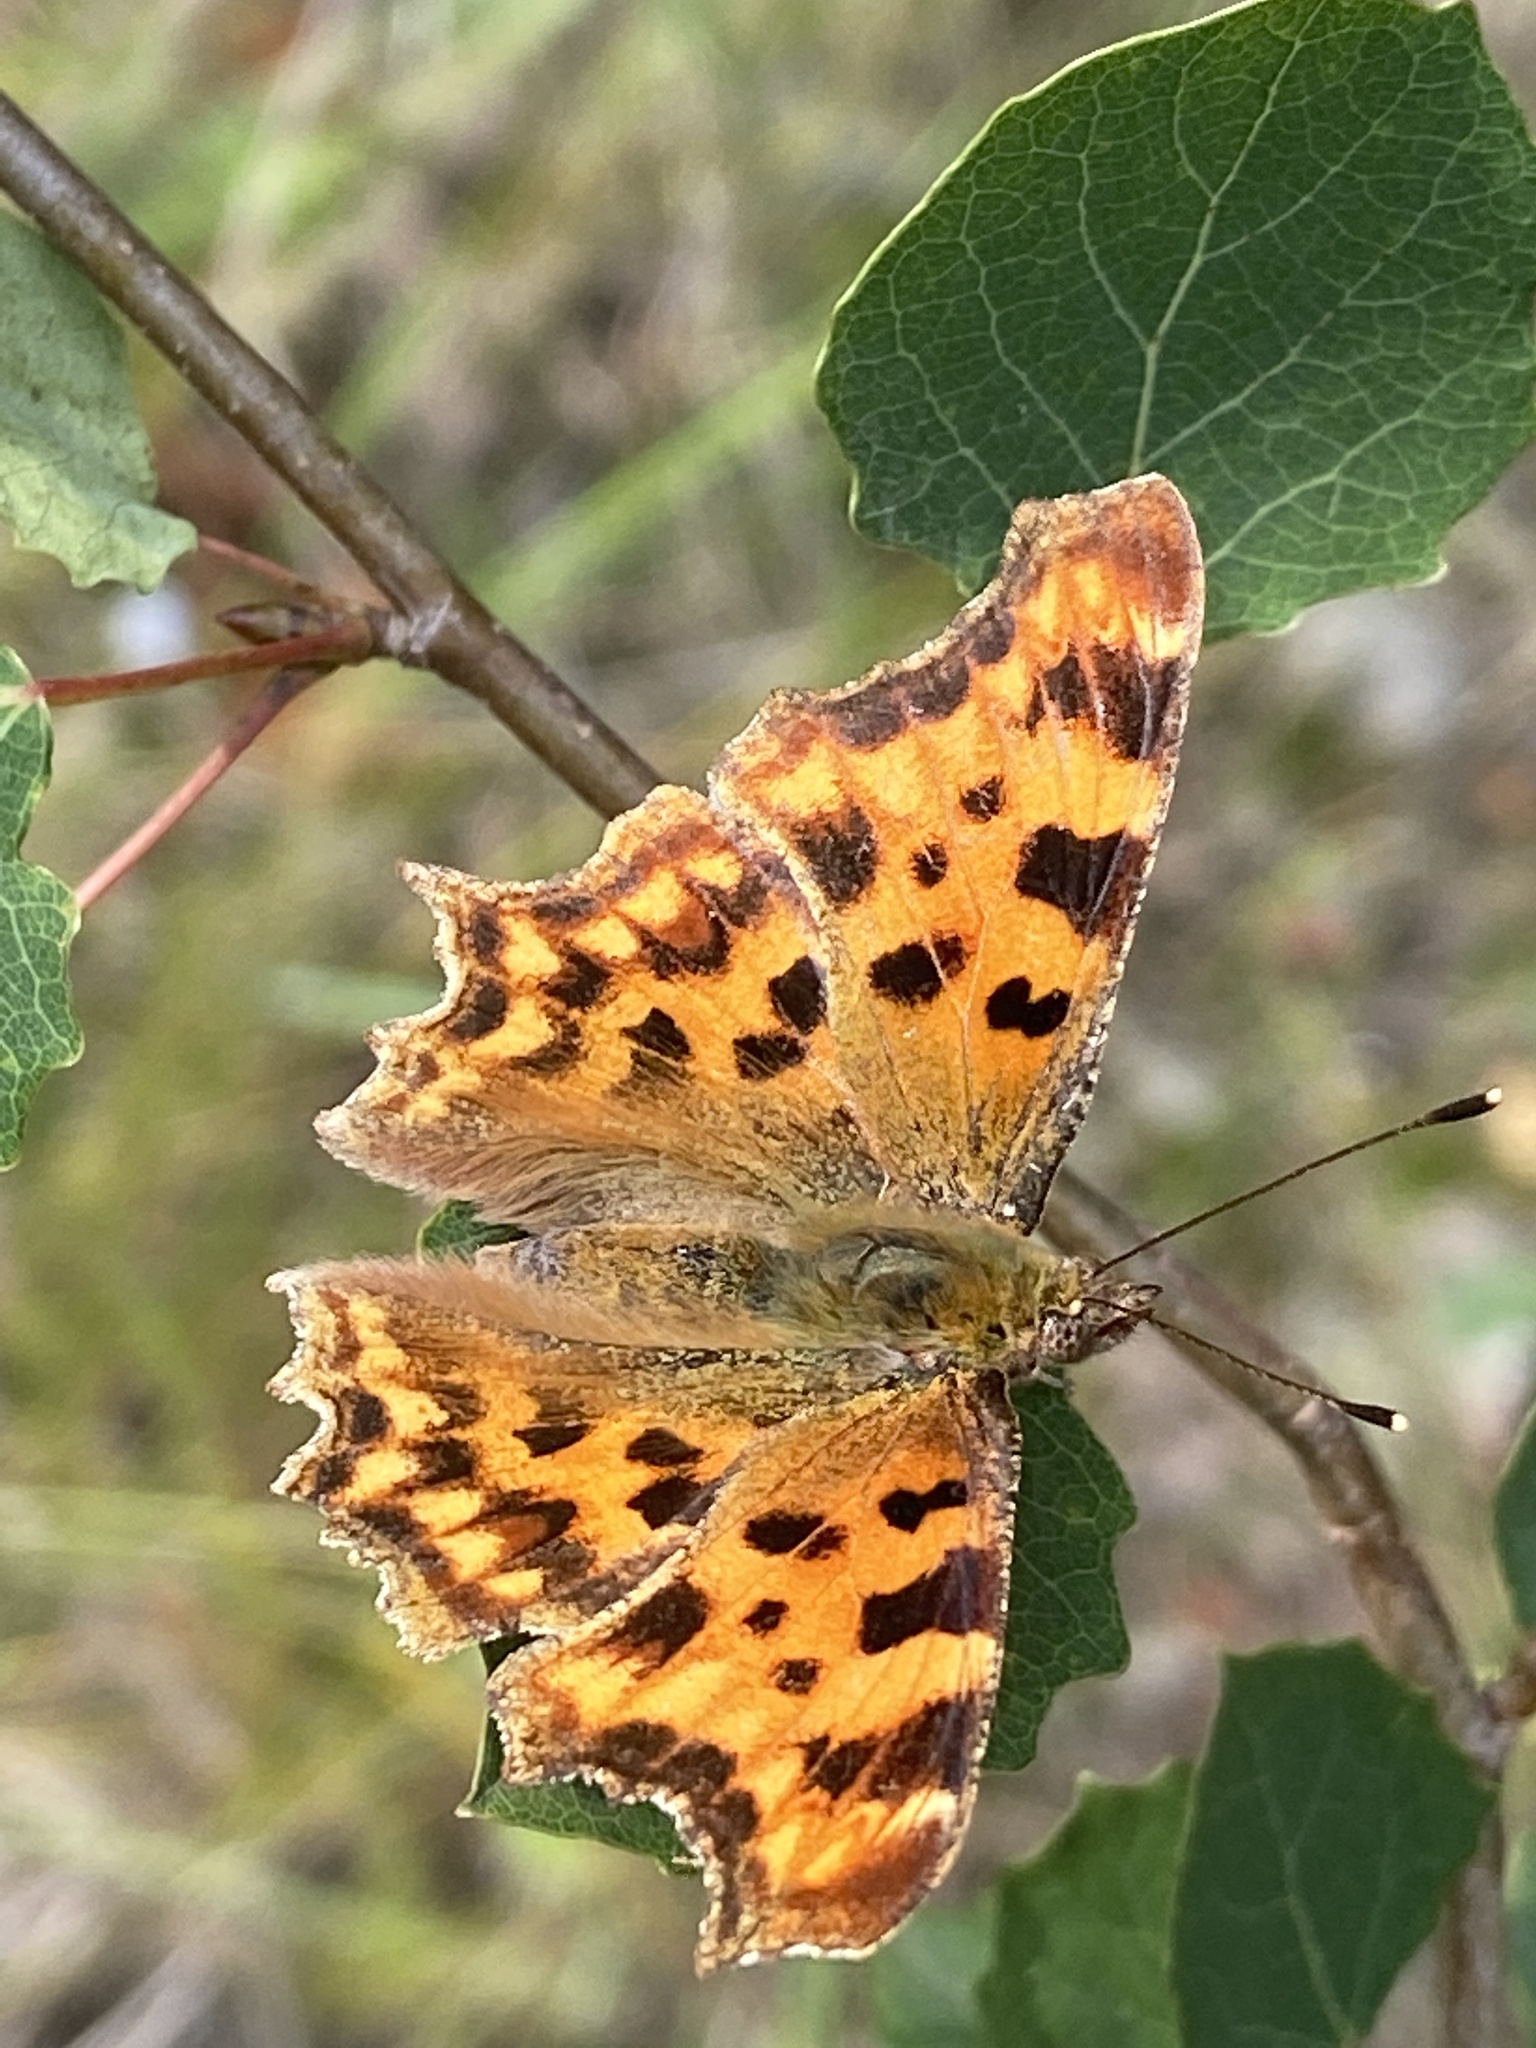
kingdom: Animalia
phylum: Arthropoda
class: Insecta
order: Lepidoptera
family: Nymphalidae
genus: Polygonia
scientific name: Polygonia c-album
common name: Comma
